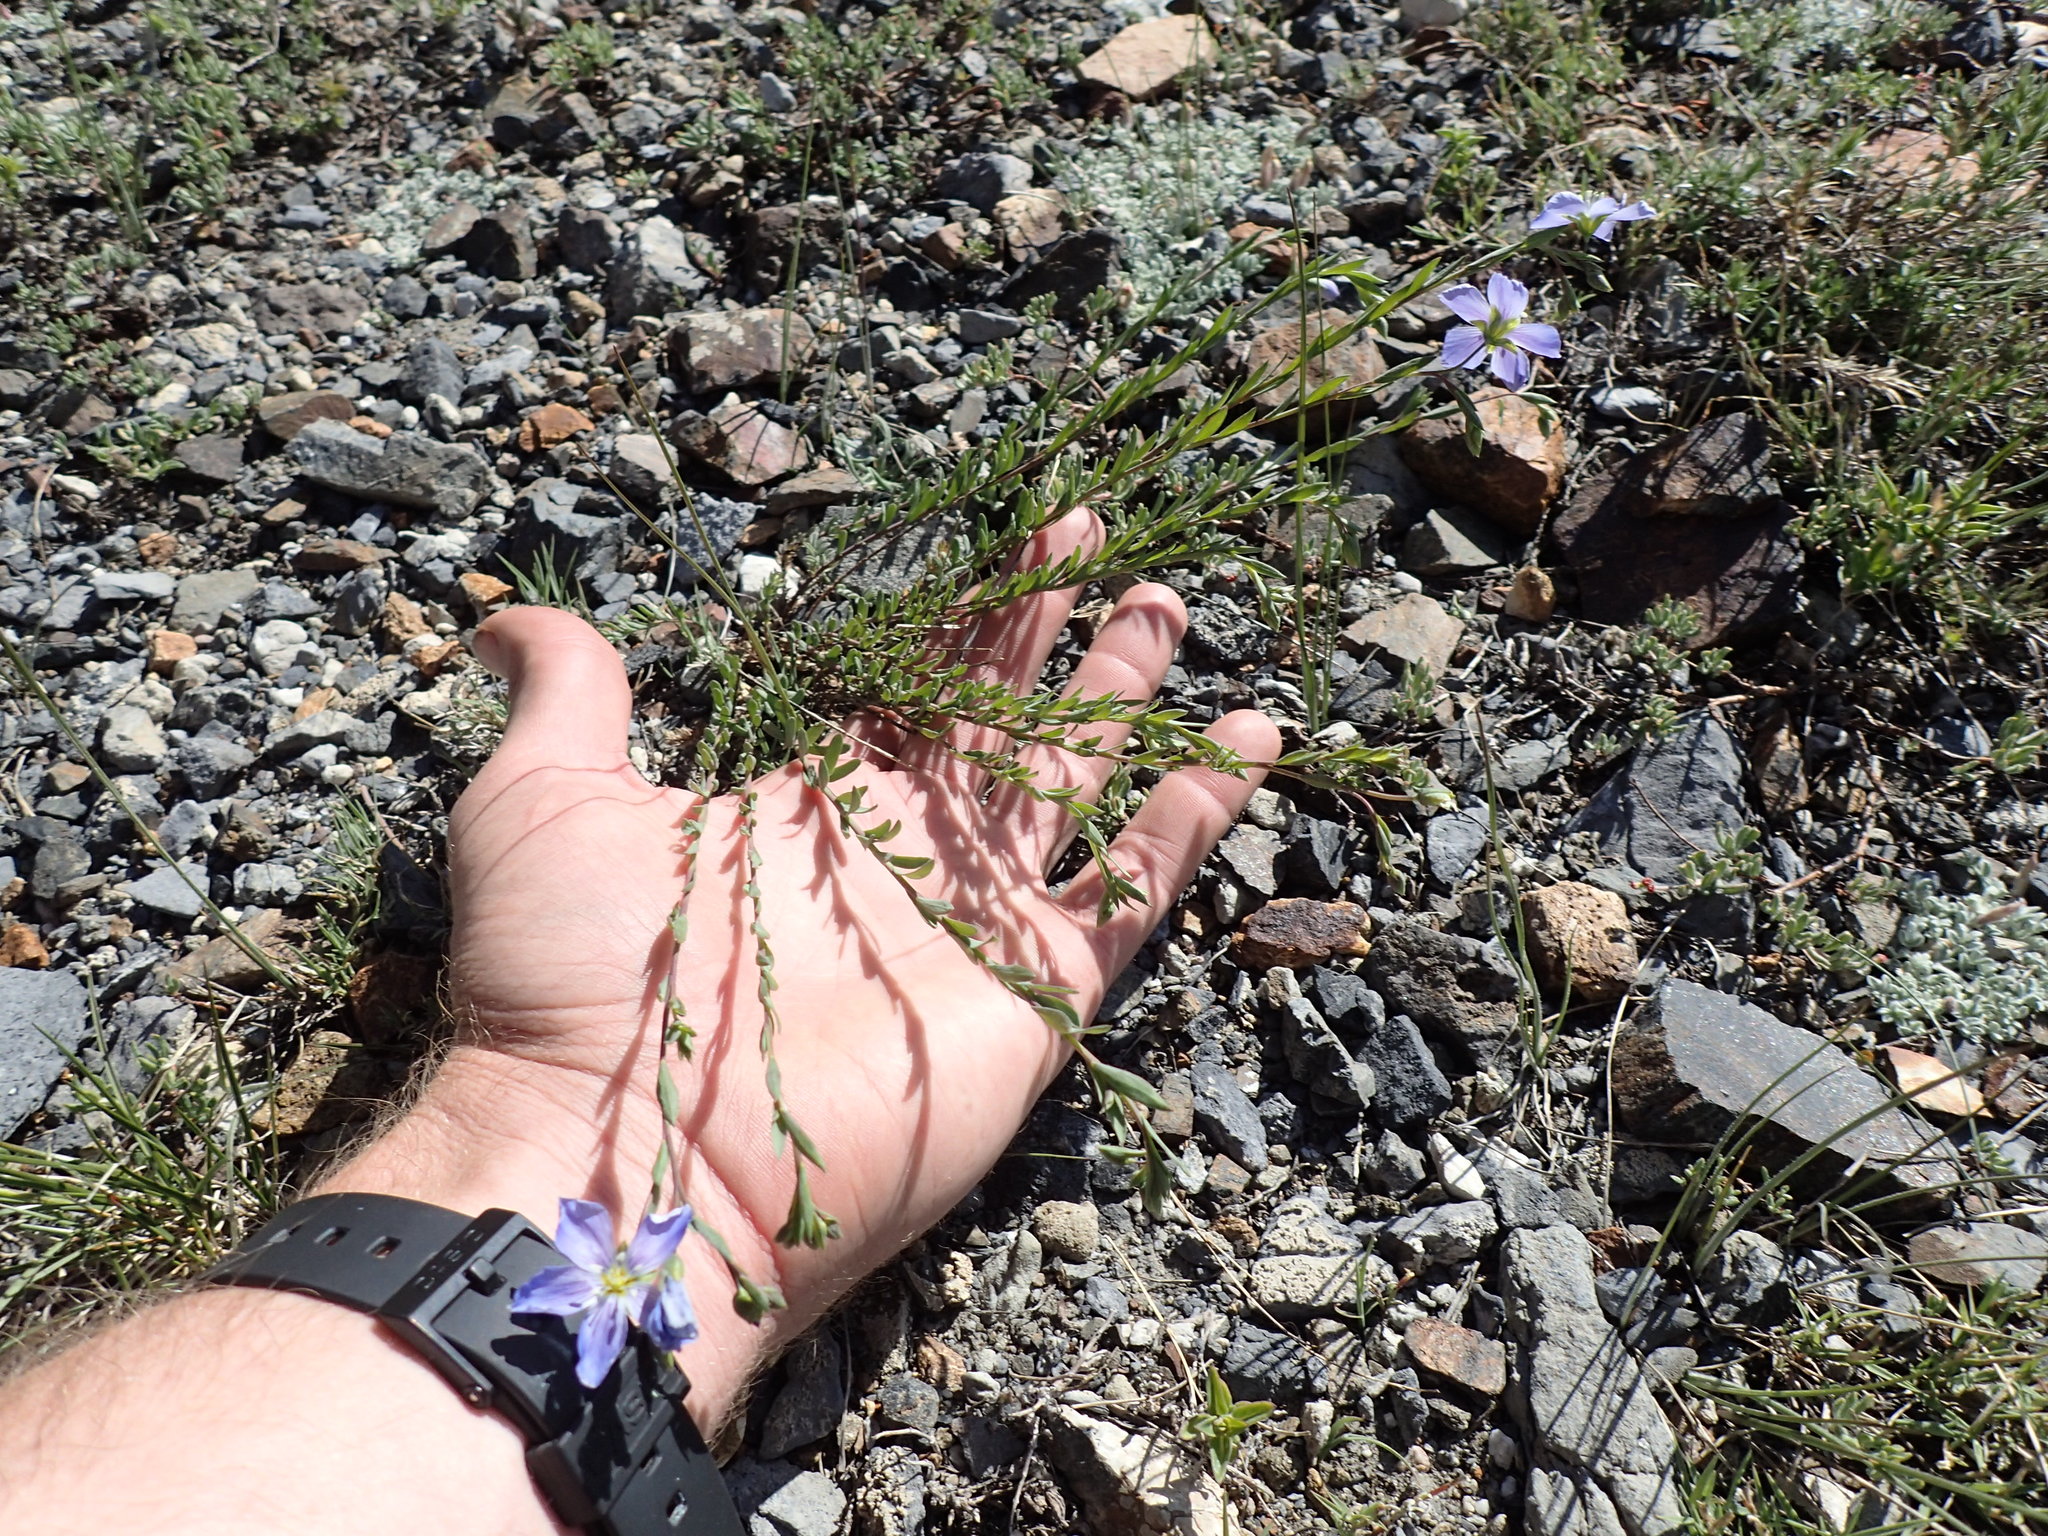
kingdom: Plantae
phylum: Tracheophyta
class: Magnoliopsida
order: Malpighiales
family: Linaceae
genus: Linum
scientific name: Linum lewisii
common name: Prairie flax
